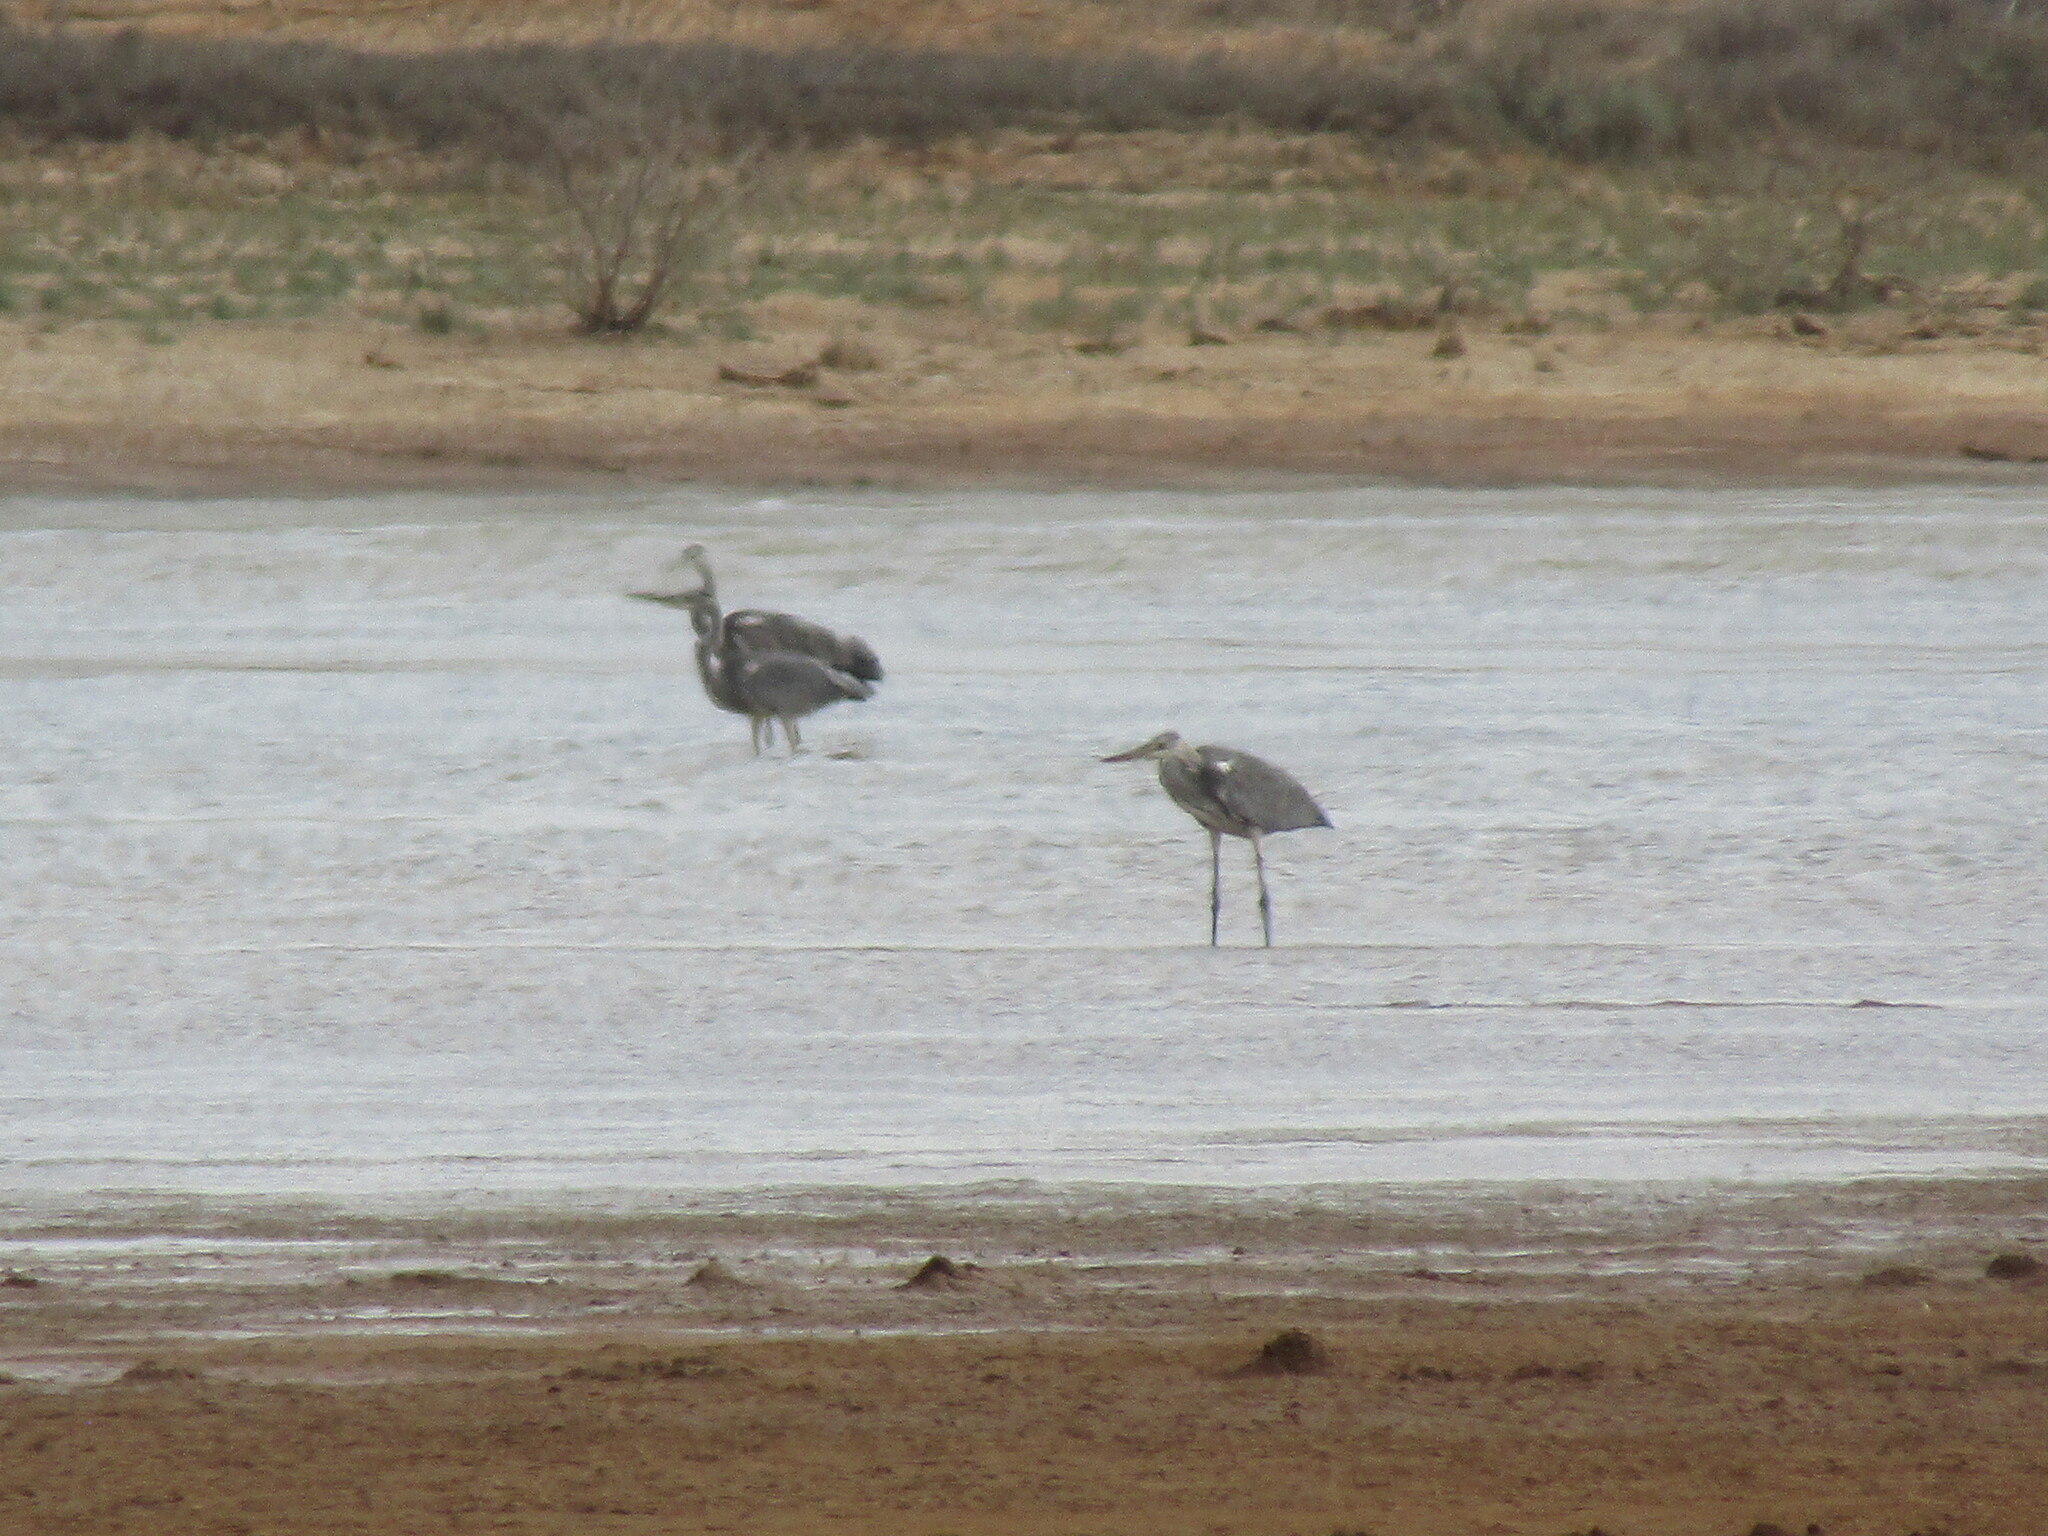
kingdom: Animalia
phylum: Chordata
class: Aves
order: Pelecaniformes
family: Ardeidae
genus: Ardea
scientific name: Ardea cinerea
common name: Grey heron
